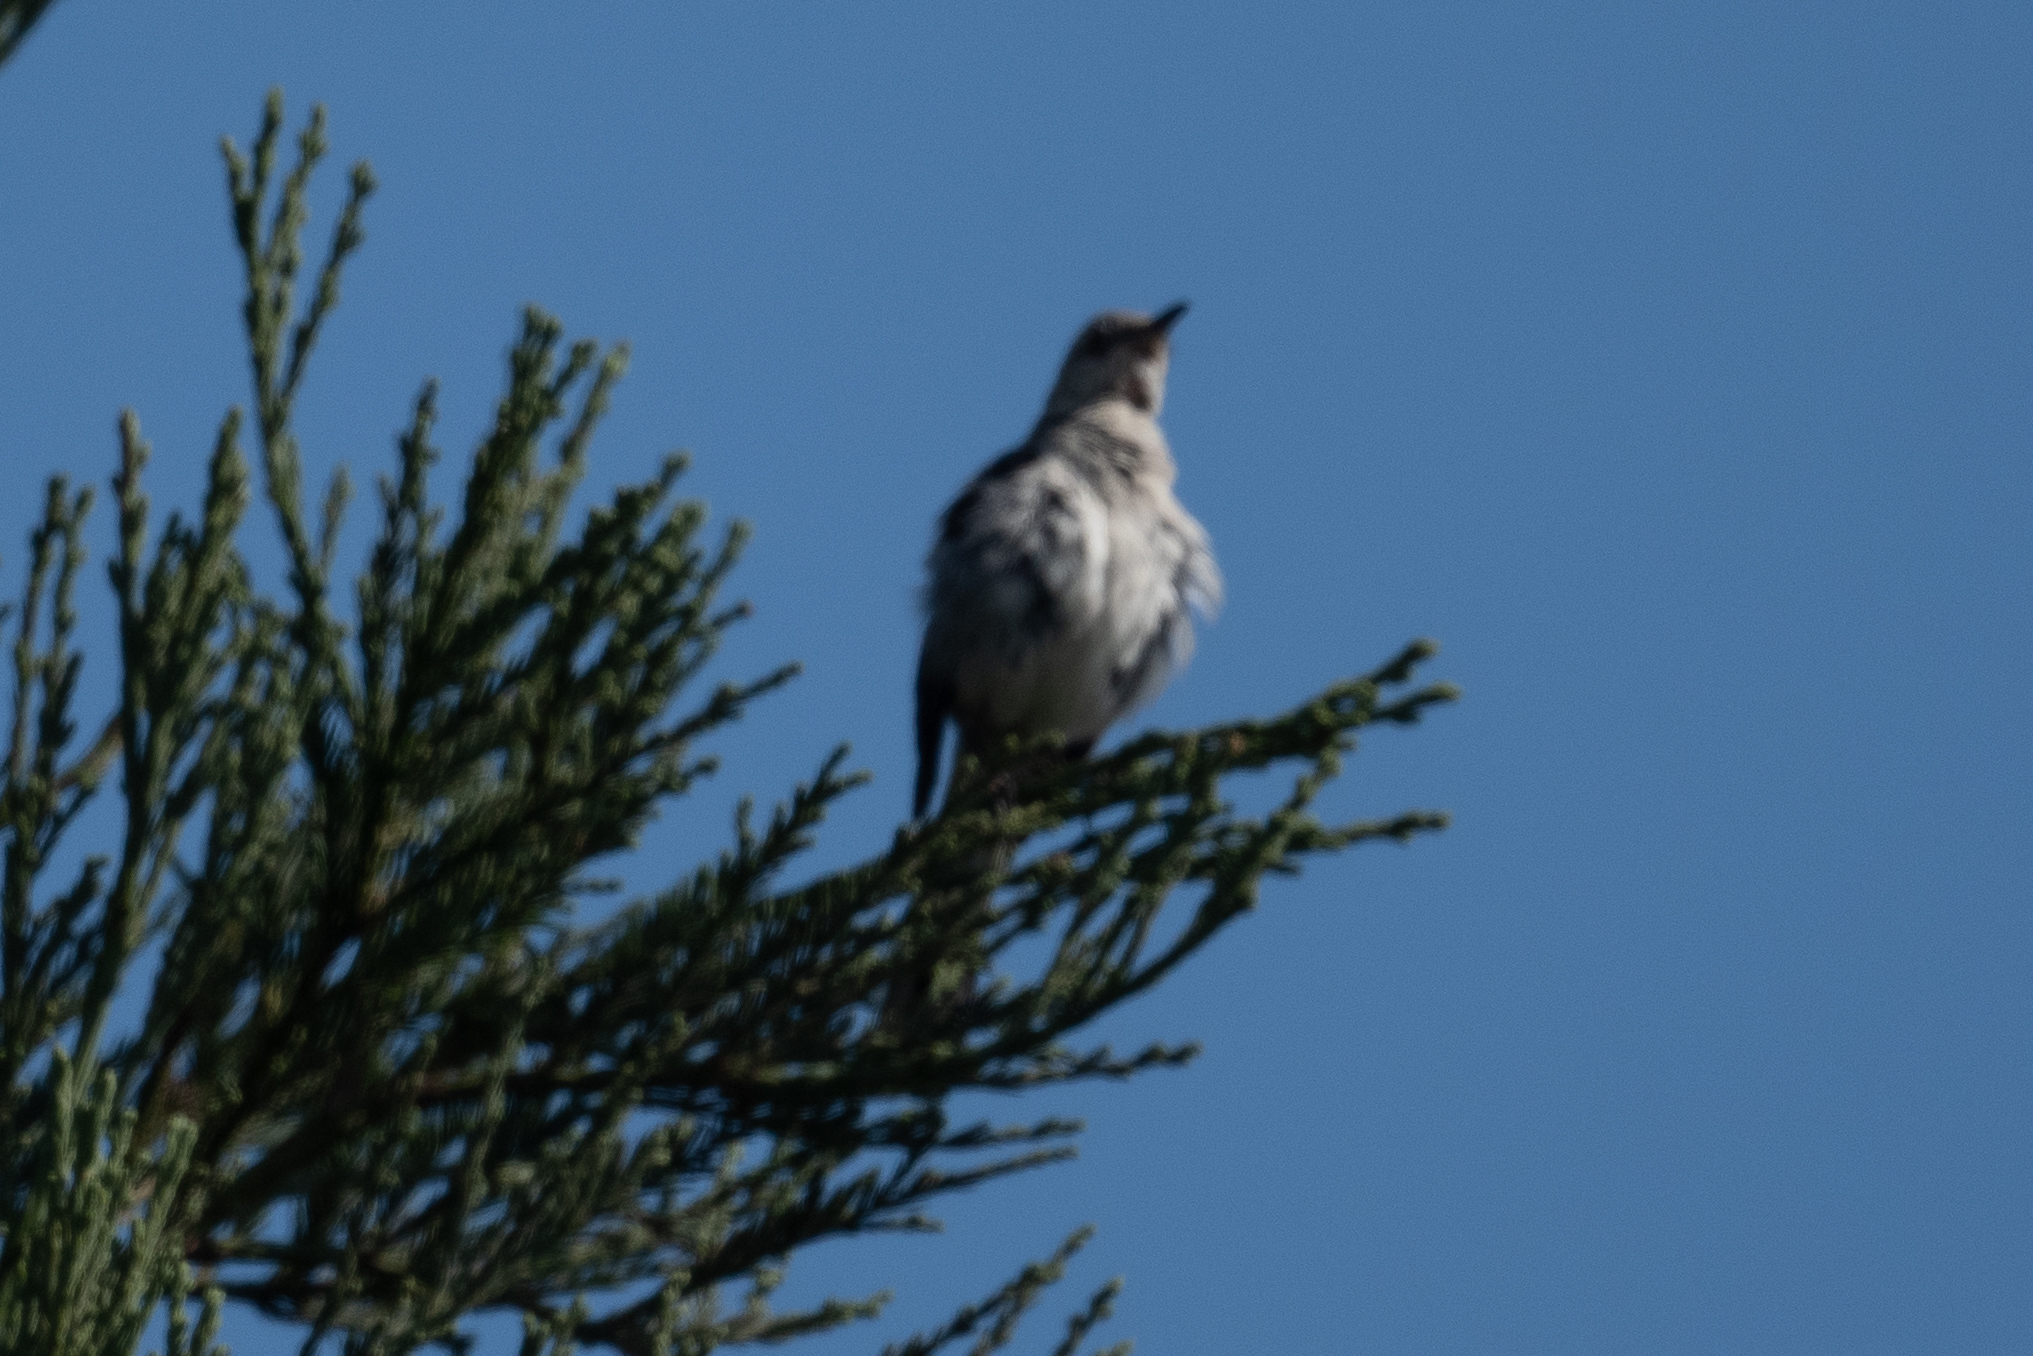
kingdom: Animalia
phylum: Chordata
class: Aves
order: Passeriformes
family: Mimidae
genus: Mimus
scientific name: Mimus polyglottos
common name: Northern mockingbird
